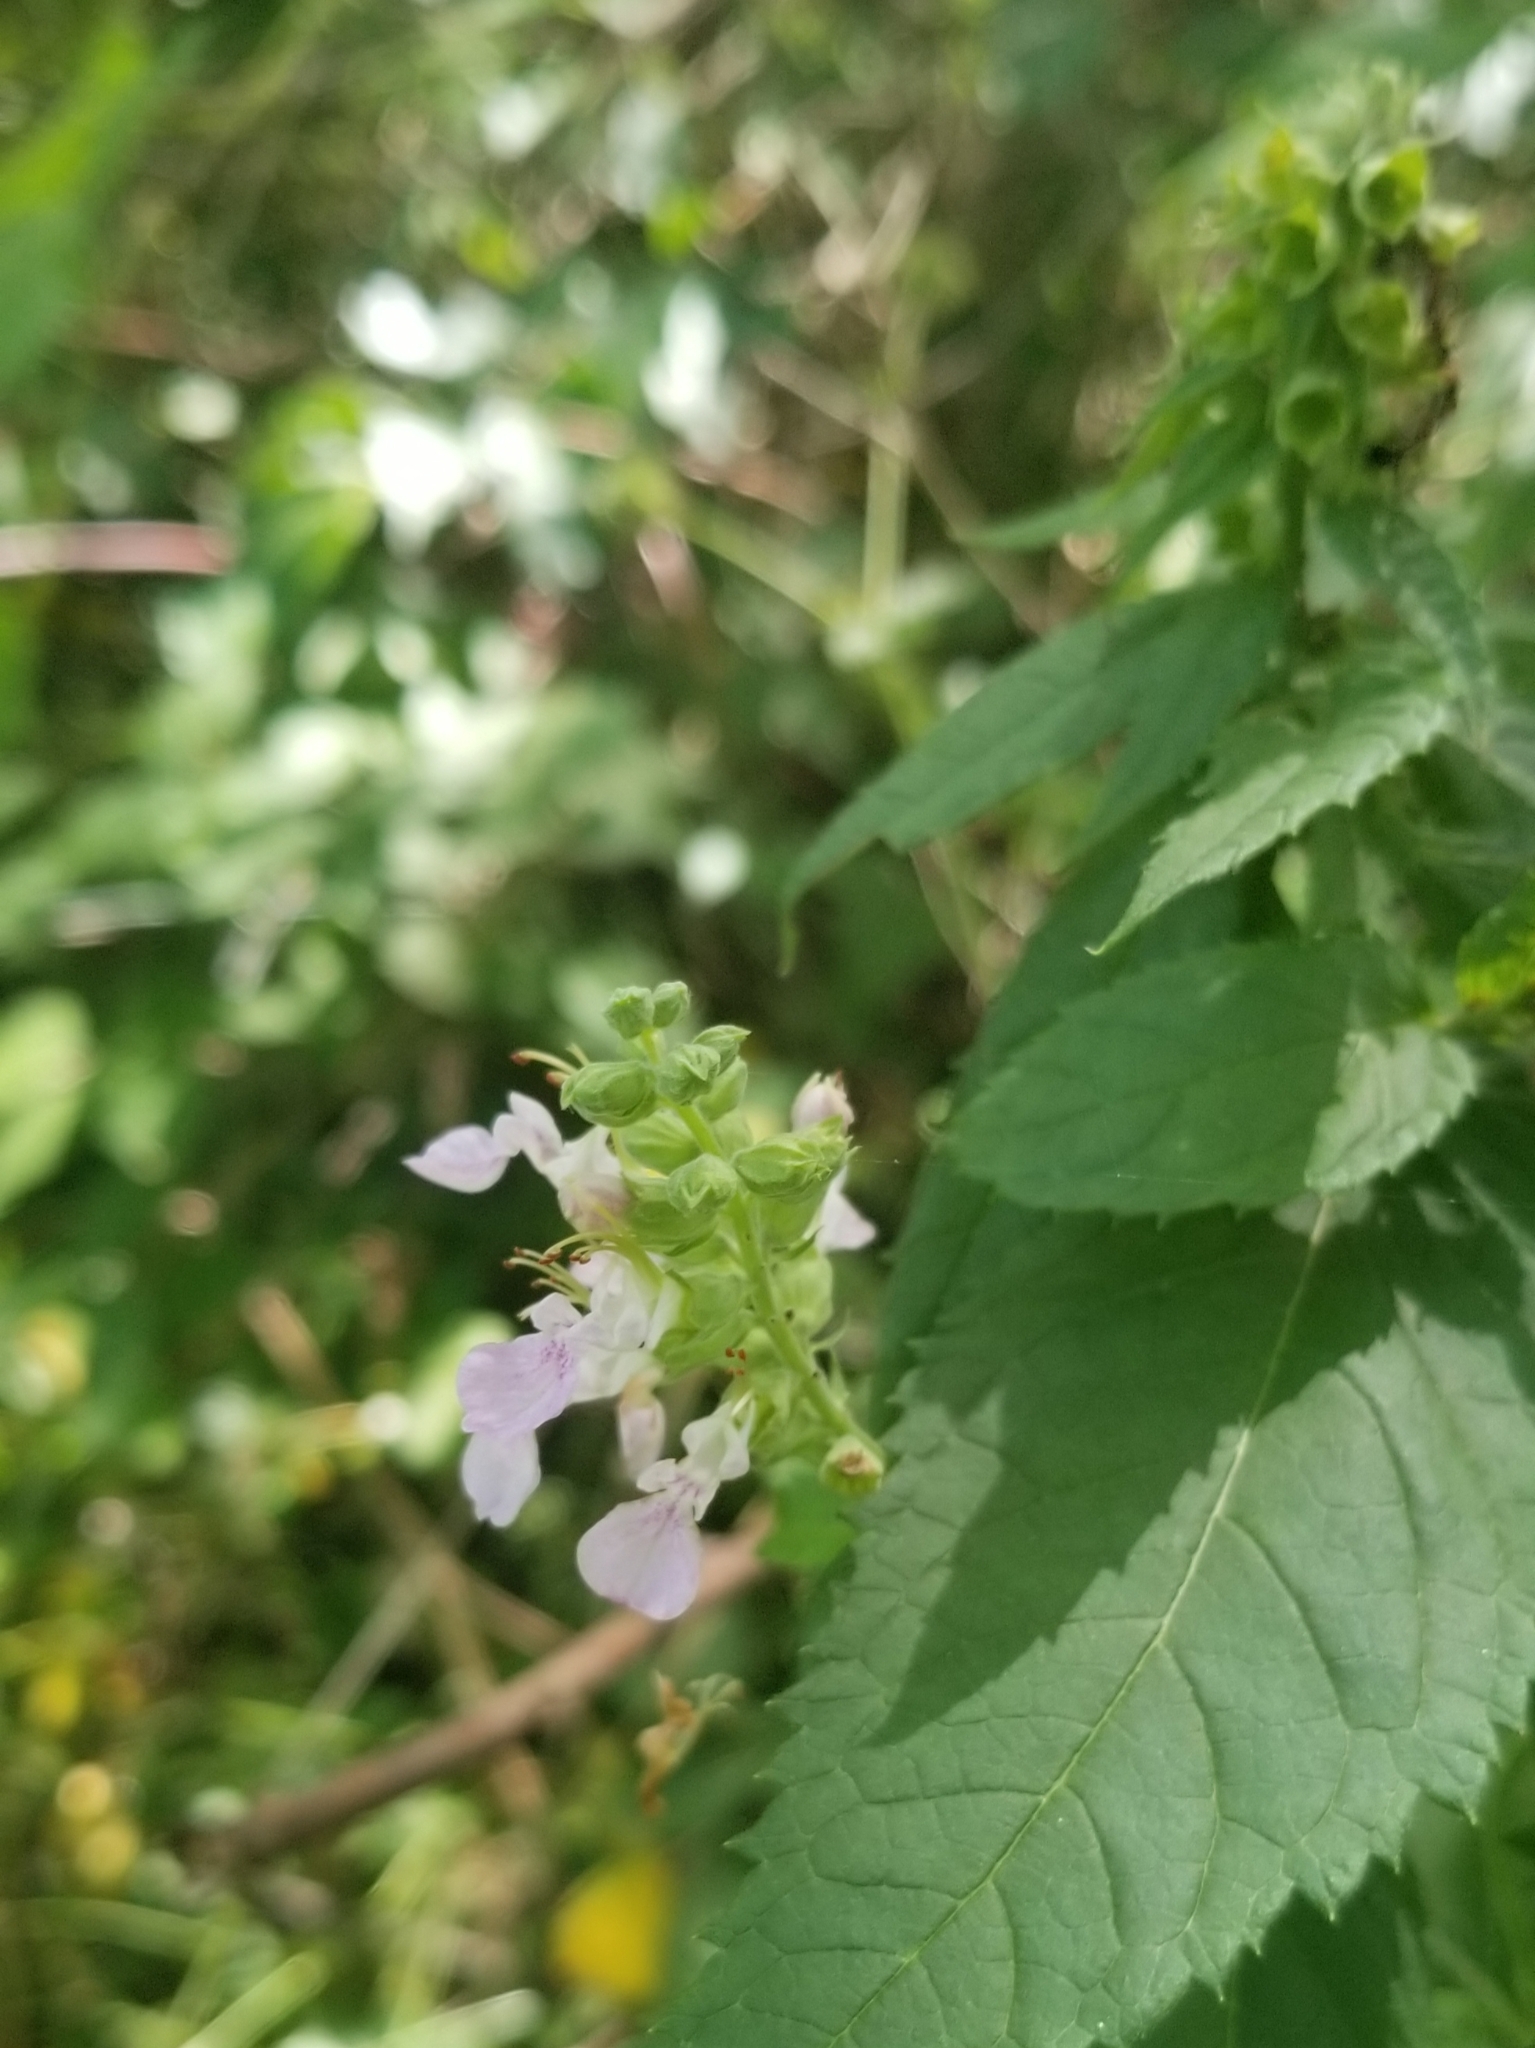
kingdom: Plantae
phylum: Tracheophyta
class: Magnoliopsida
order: Lamiales
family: Lamiaceae
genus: Teucrium
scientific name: Teucrium canadense
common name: American germander
